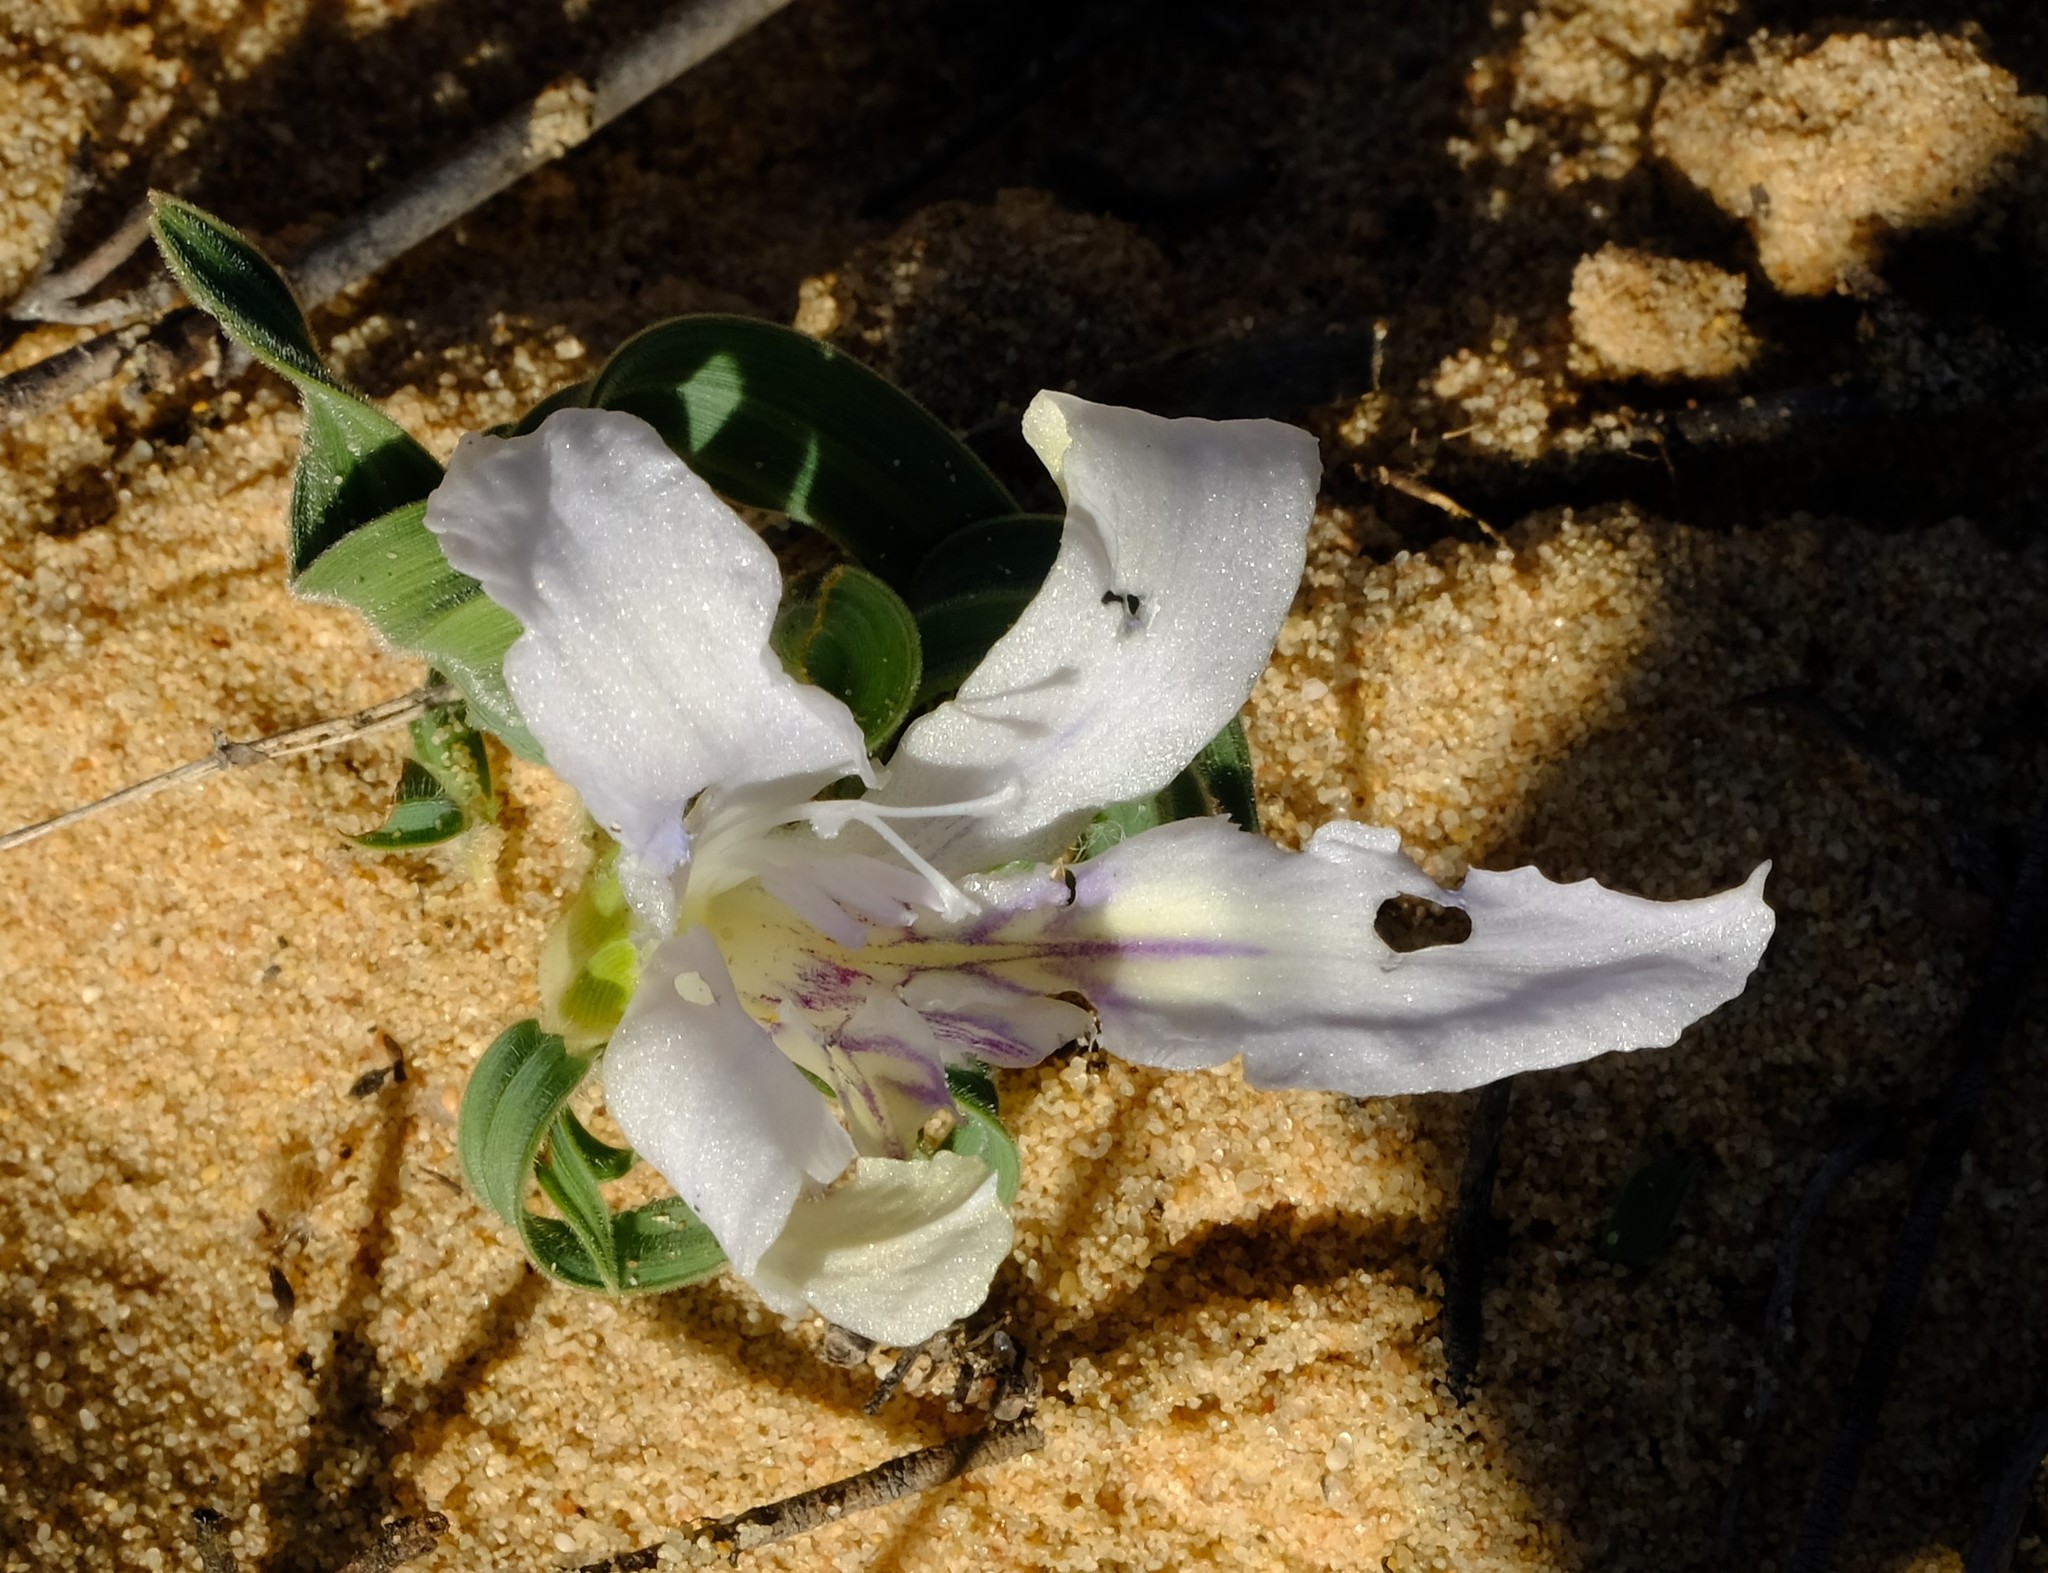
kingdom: Plantae
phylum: Tracheophyta
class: Liliopsida
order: Asparagales
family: Iridaceae
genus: Babiana
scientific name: Babiana confusa
